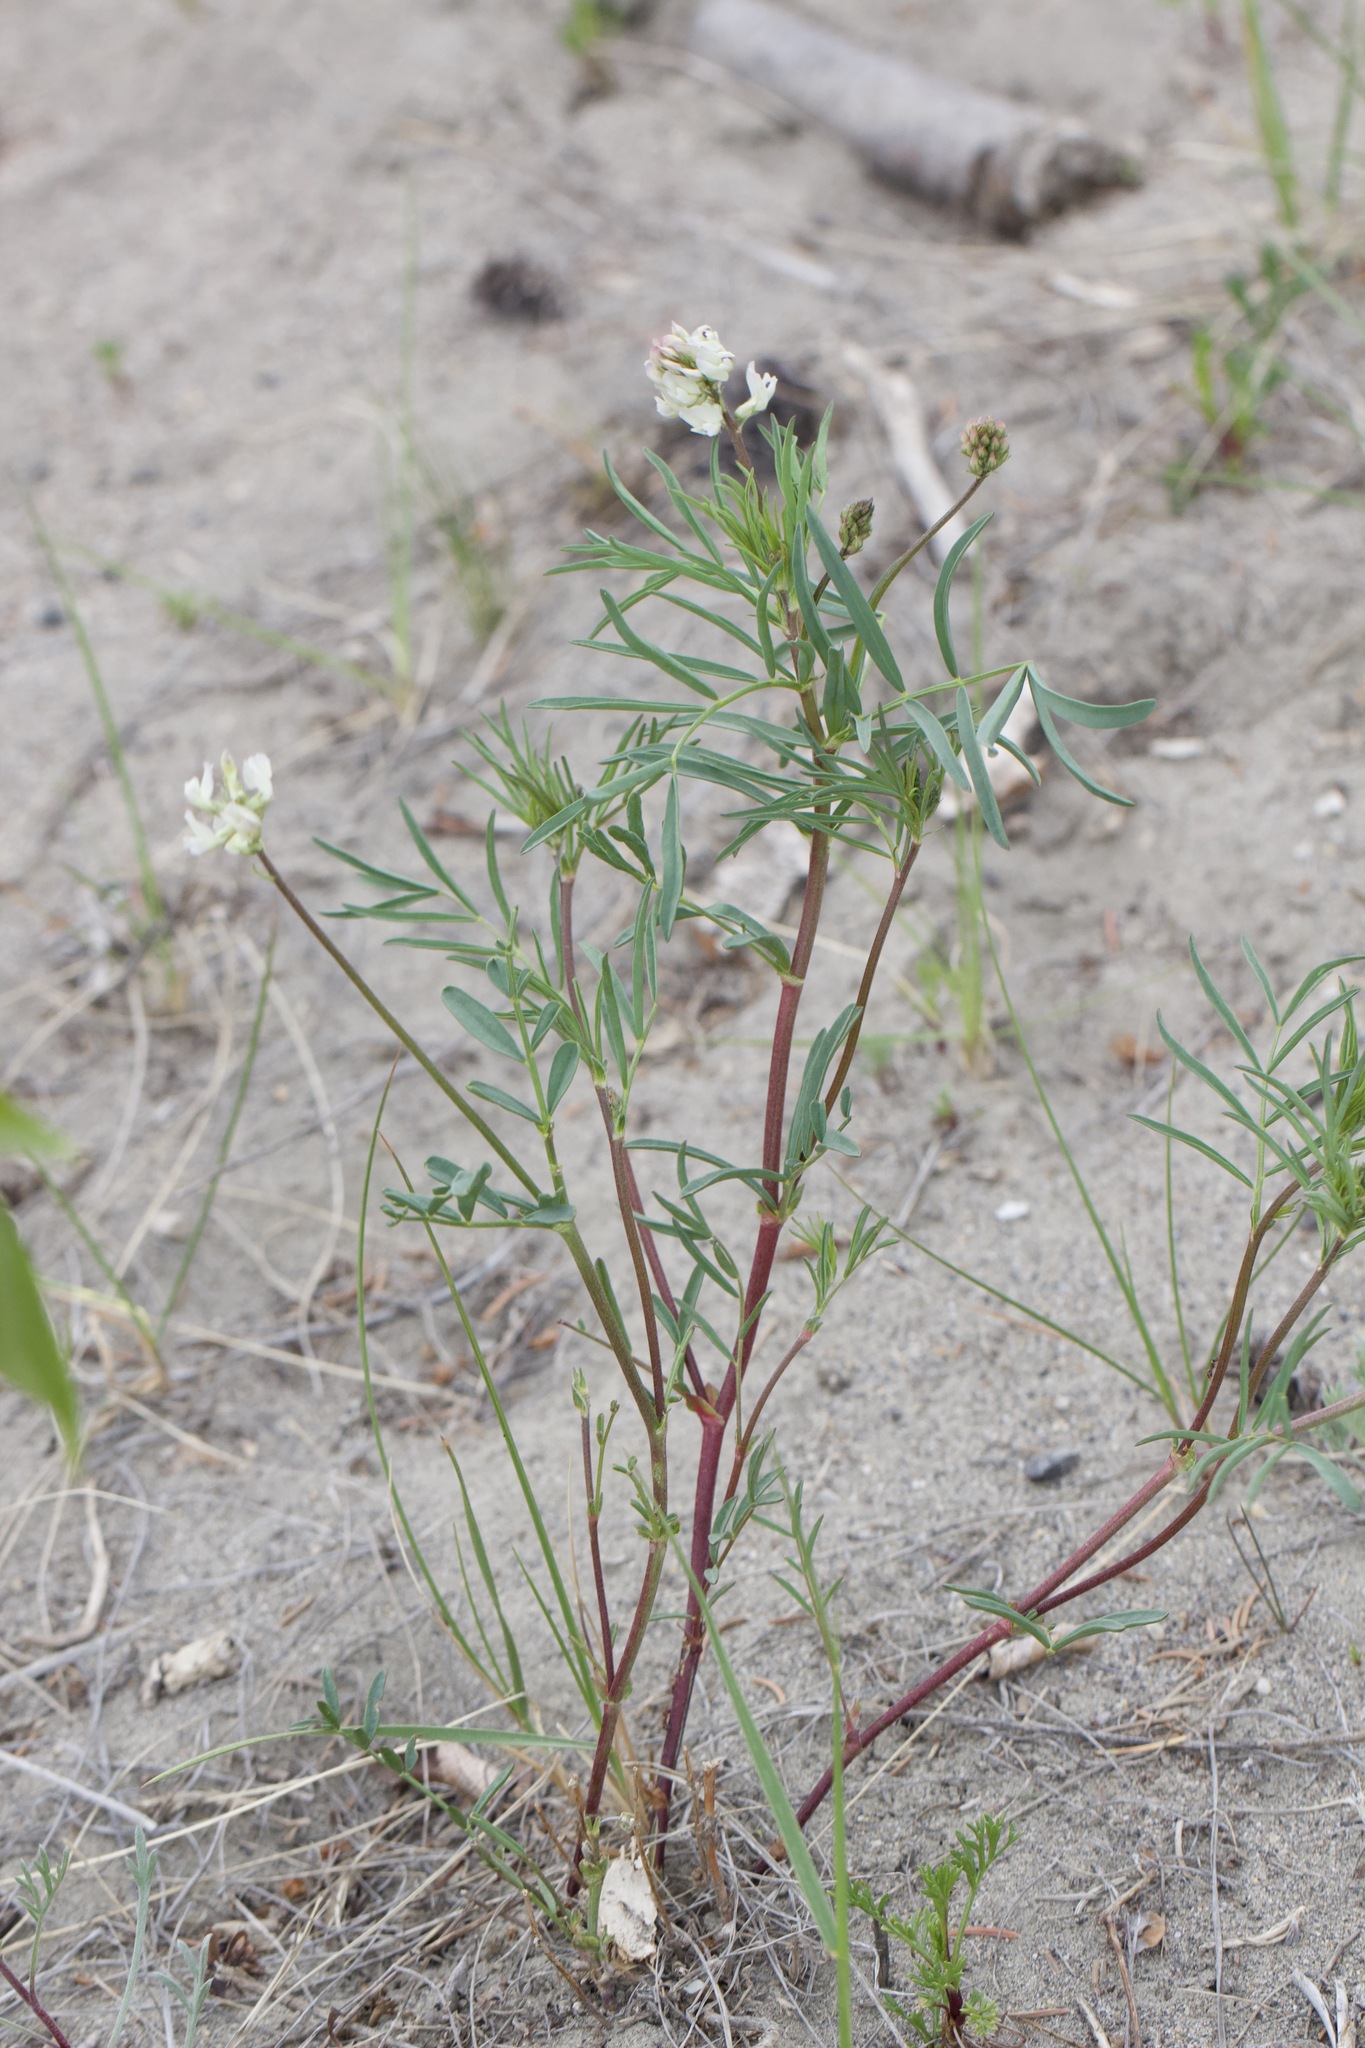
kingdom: Plantae
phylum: Tracheophyta
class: Magnoliopsida
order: Fabales
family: Fabaceae
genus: Astragalus
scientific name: Astragalus australis
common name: Indian milk-vetch
